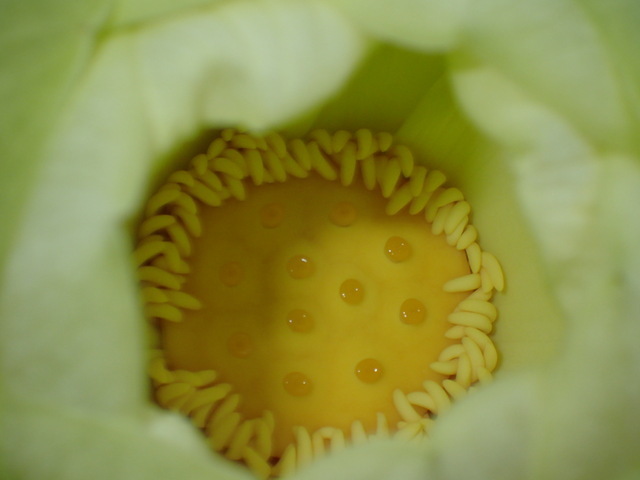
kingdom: Plantae
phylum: Tracheophyta
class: Magnoliopsida
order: Proteales
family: Nelumbonaceae
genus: Nelumbo
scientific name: Nelumbo lutea
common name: American lotus
